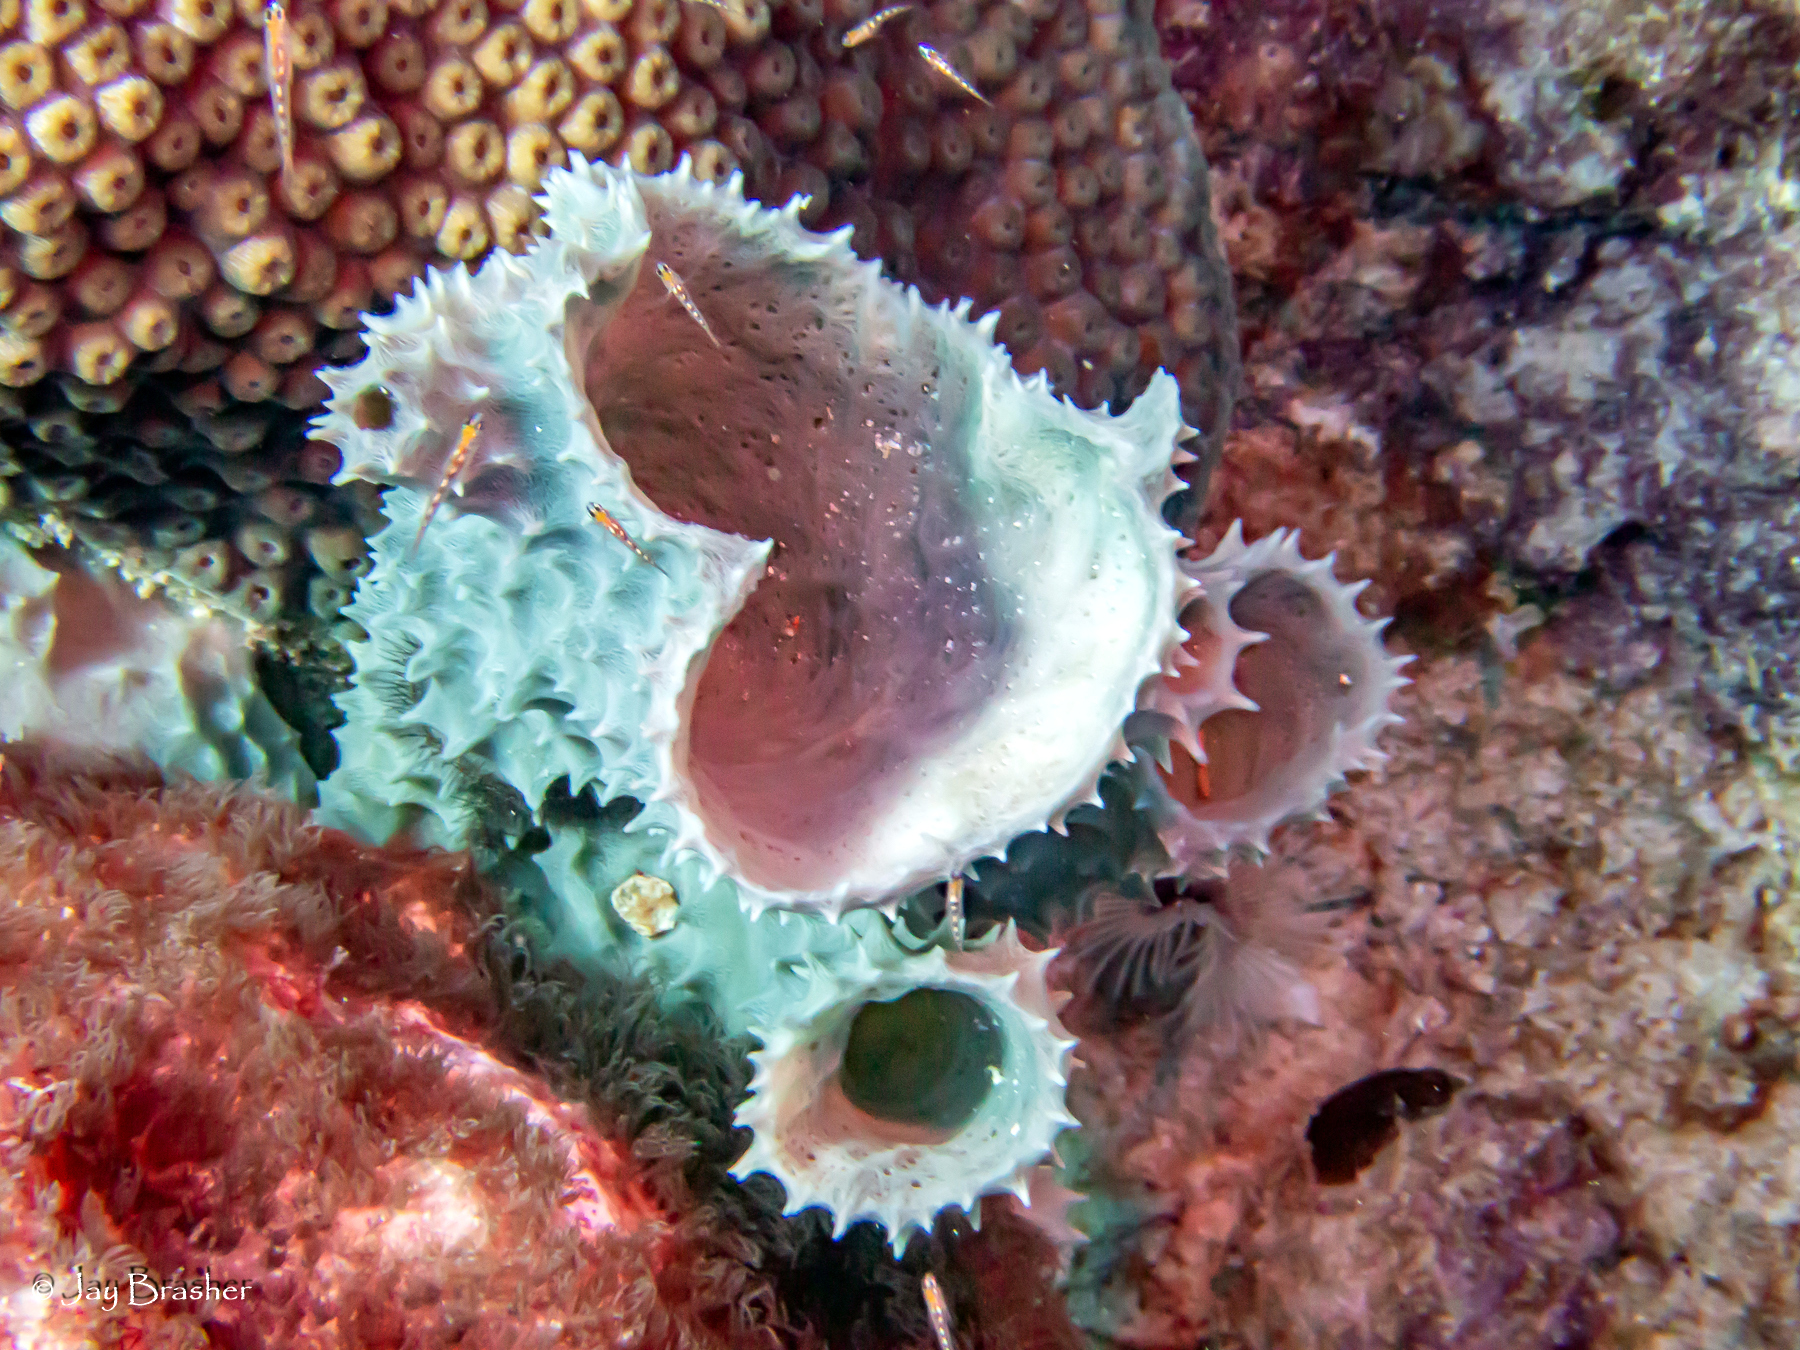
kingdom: Animalia
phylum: Porifera
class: Demospongiae
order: Haplosclerida
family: Callyspongiidae
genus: Callyspongia
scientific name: Callyspongia aculeata
